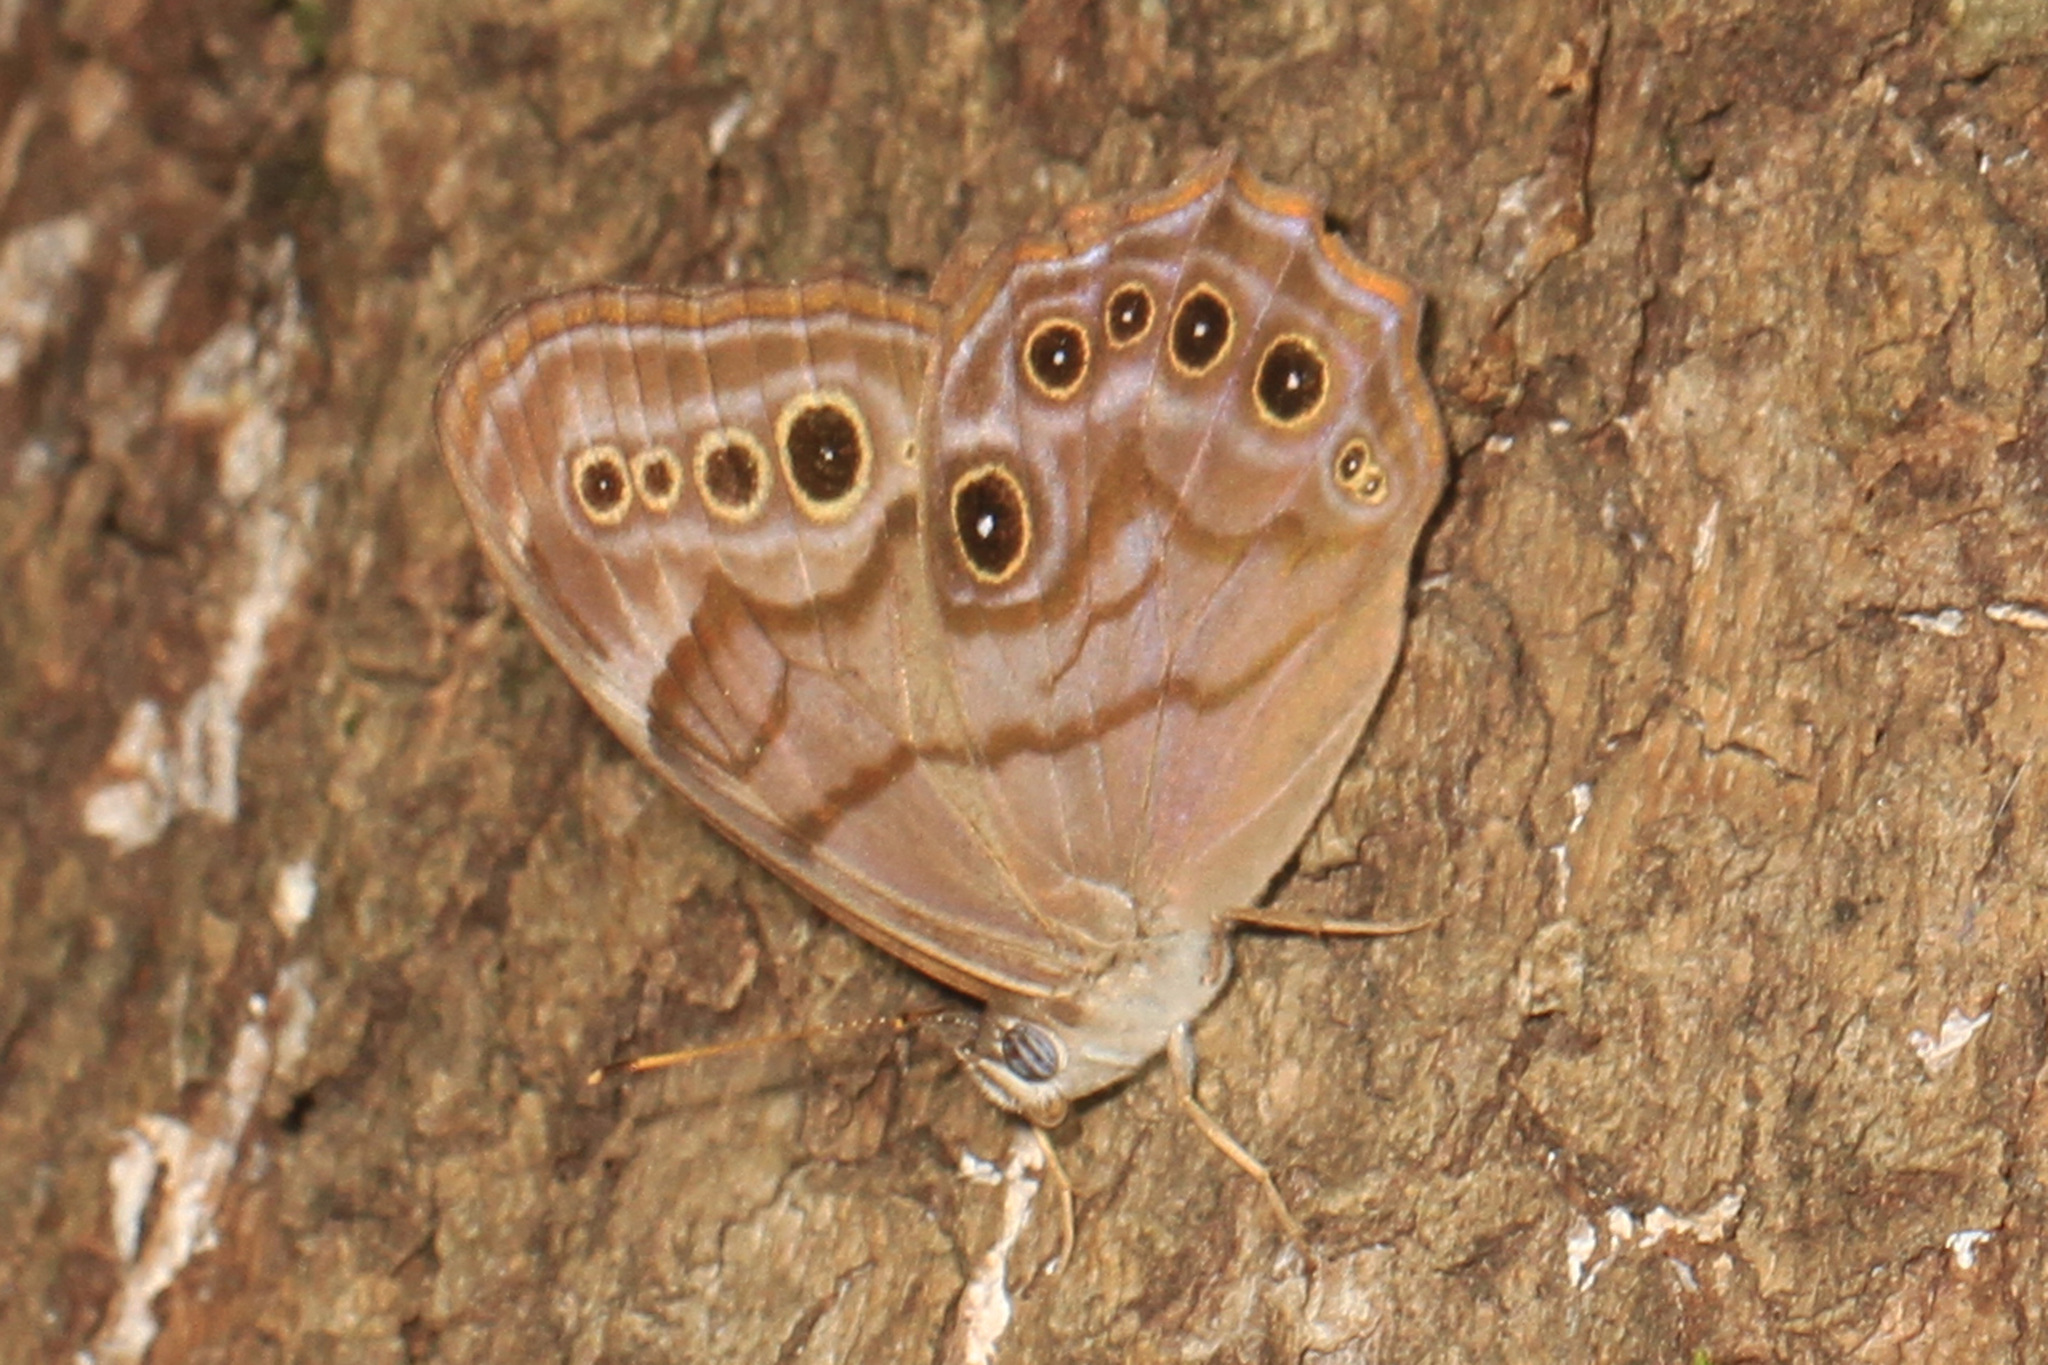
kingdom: Animalia
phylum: Arthropoda
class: Insecta
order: Lepidoptera
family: Nymphalidae
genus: Lethe
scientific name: Lethe anthedon
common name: Northern pearly-eye
